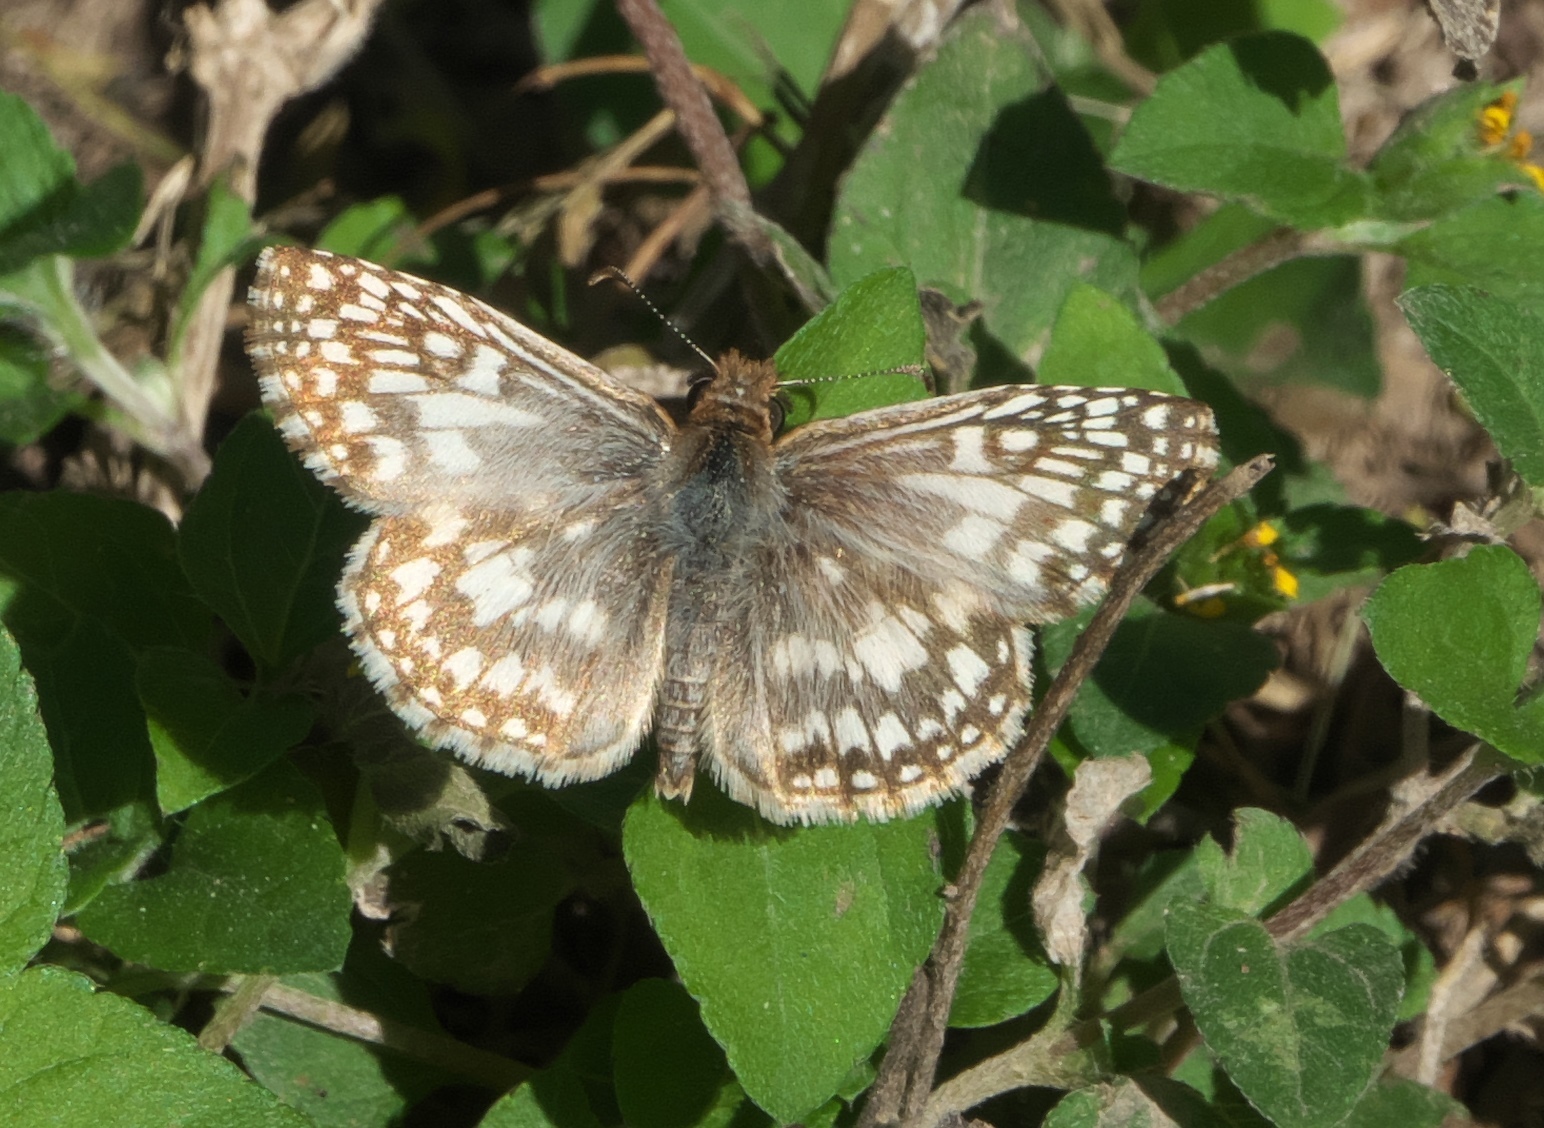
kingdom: Animalia
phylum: Arthropoda
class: Insecta
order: Lepidoptera
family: Hesperiidae
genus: Pyrgus
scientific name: Pyrgus oileus
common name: Tropical checkered-skipper
